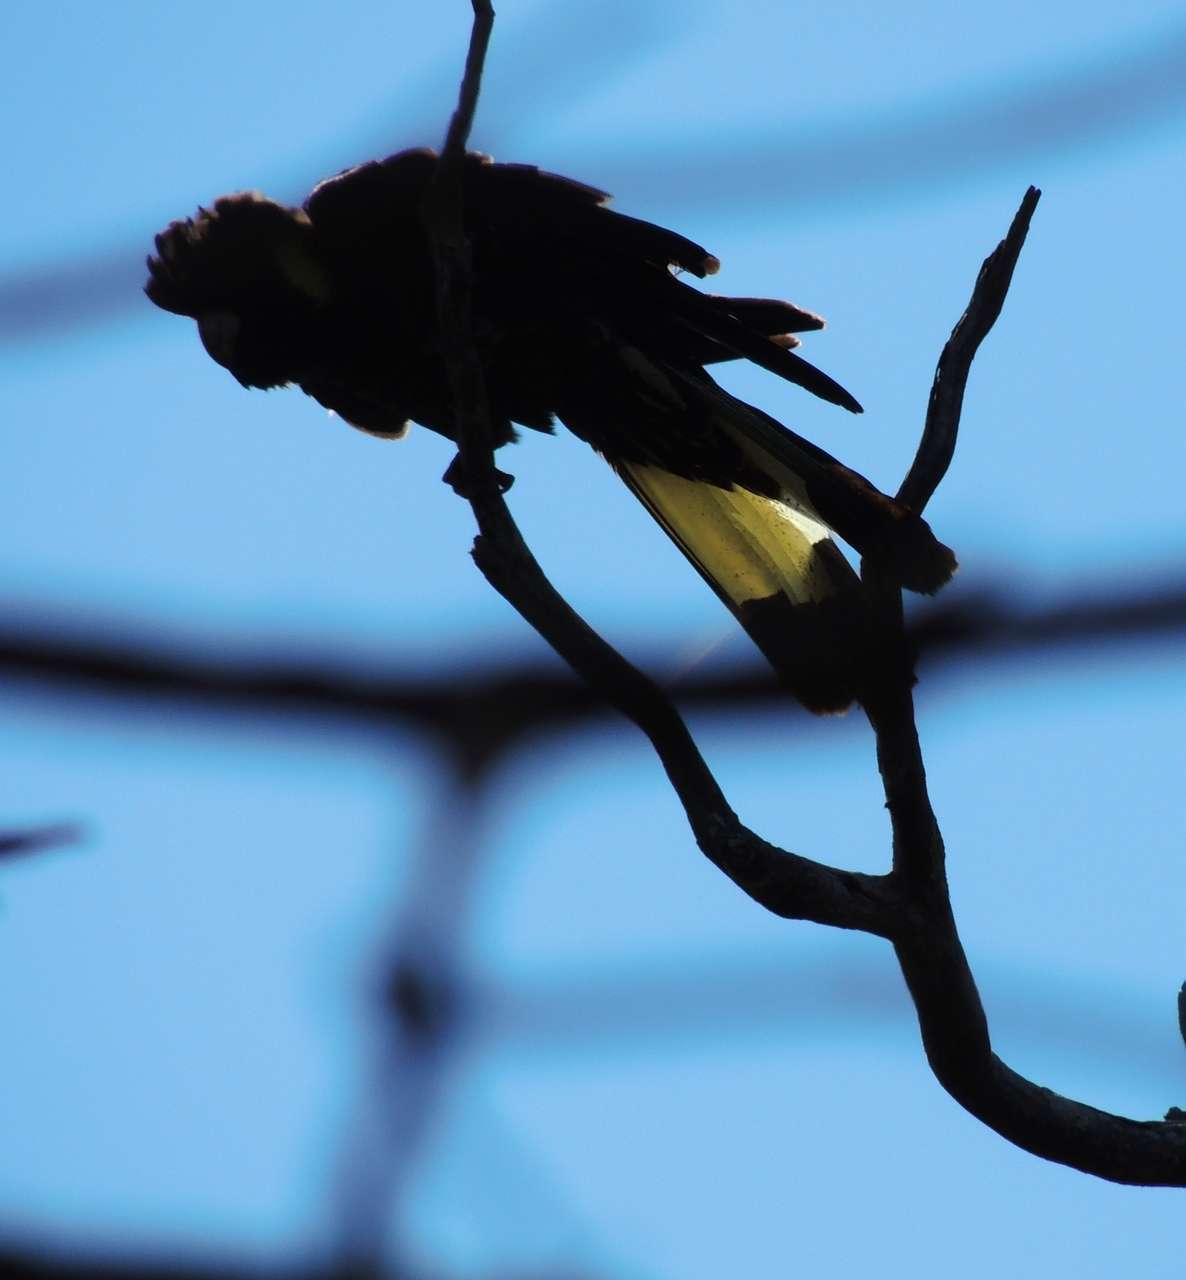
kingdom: Animalia
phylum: Chordata
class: Aves
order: Psittaciformes
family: Cacatuidae
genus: Zanda
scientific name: Zanda funerea
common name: Yellow-tailed black-cockatoo
